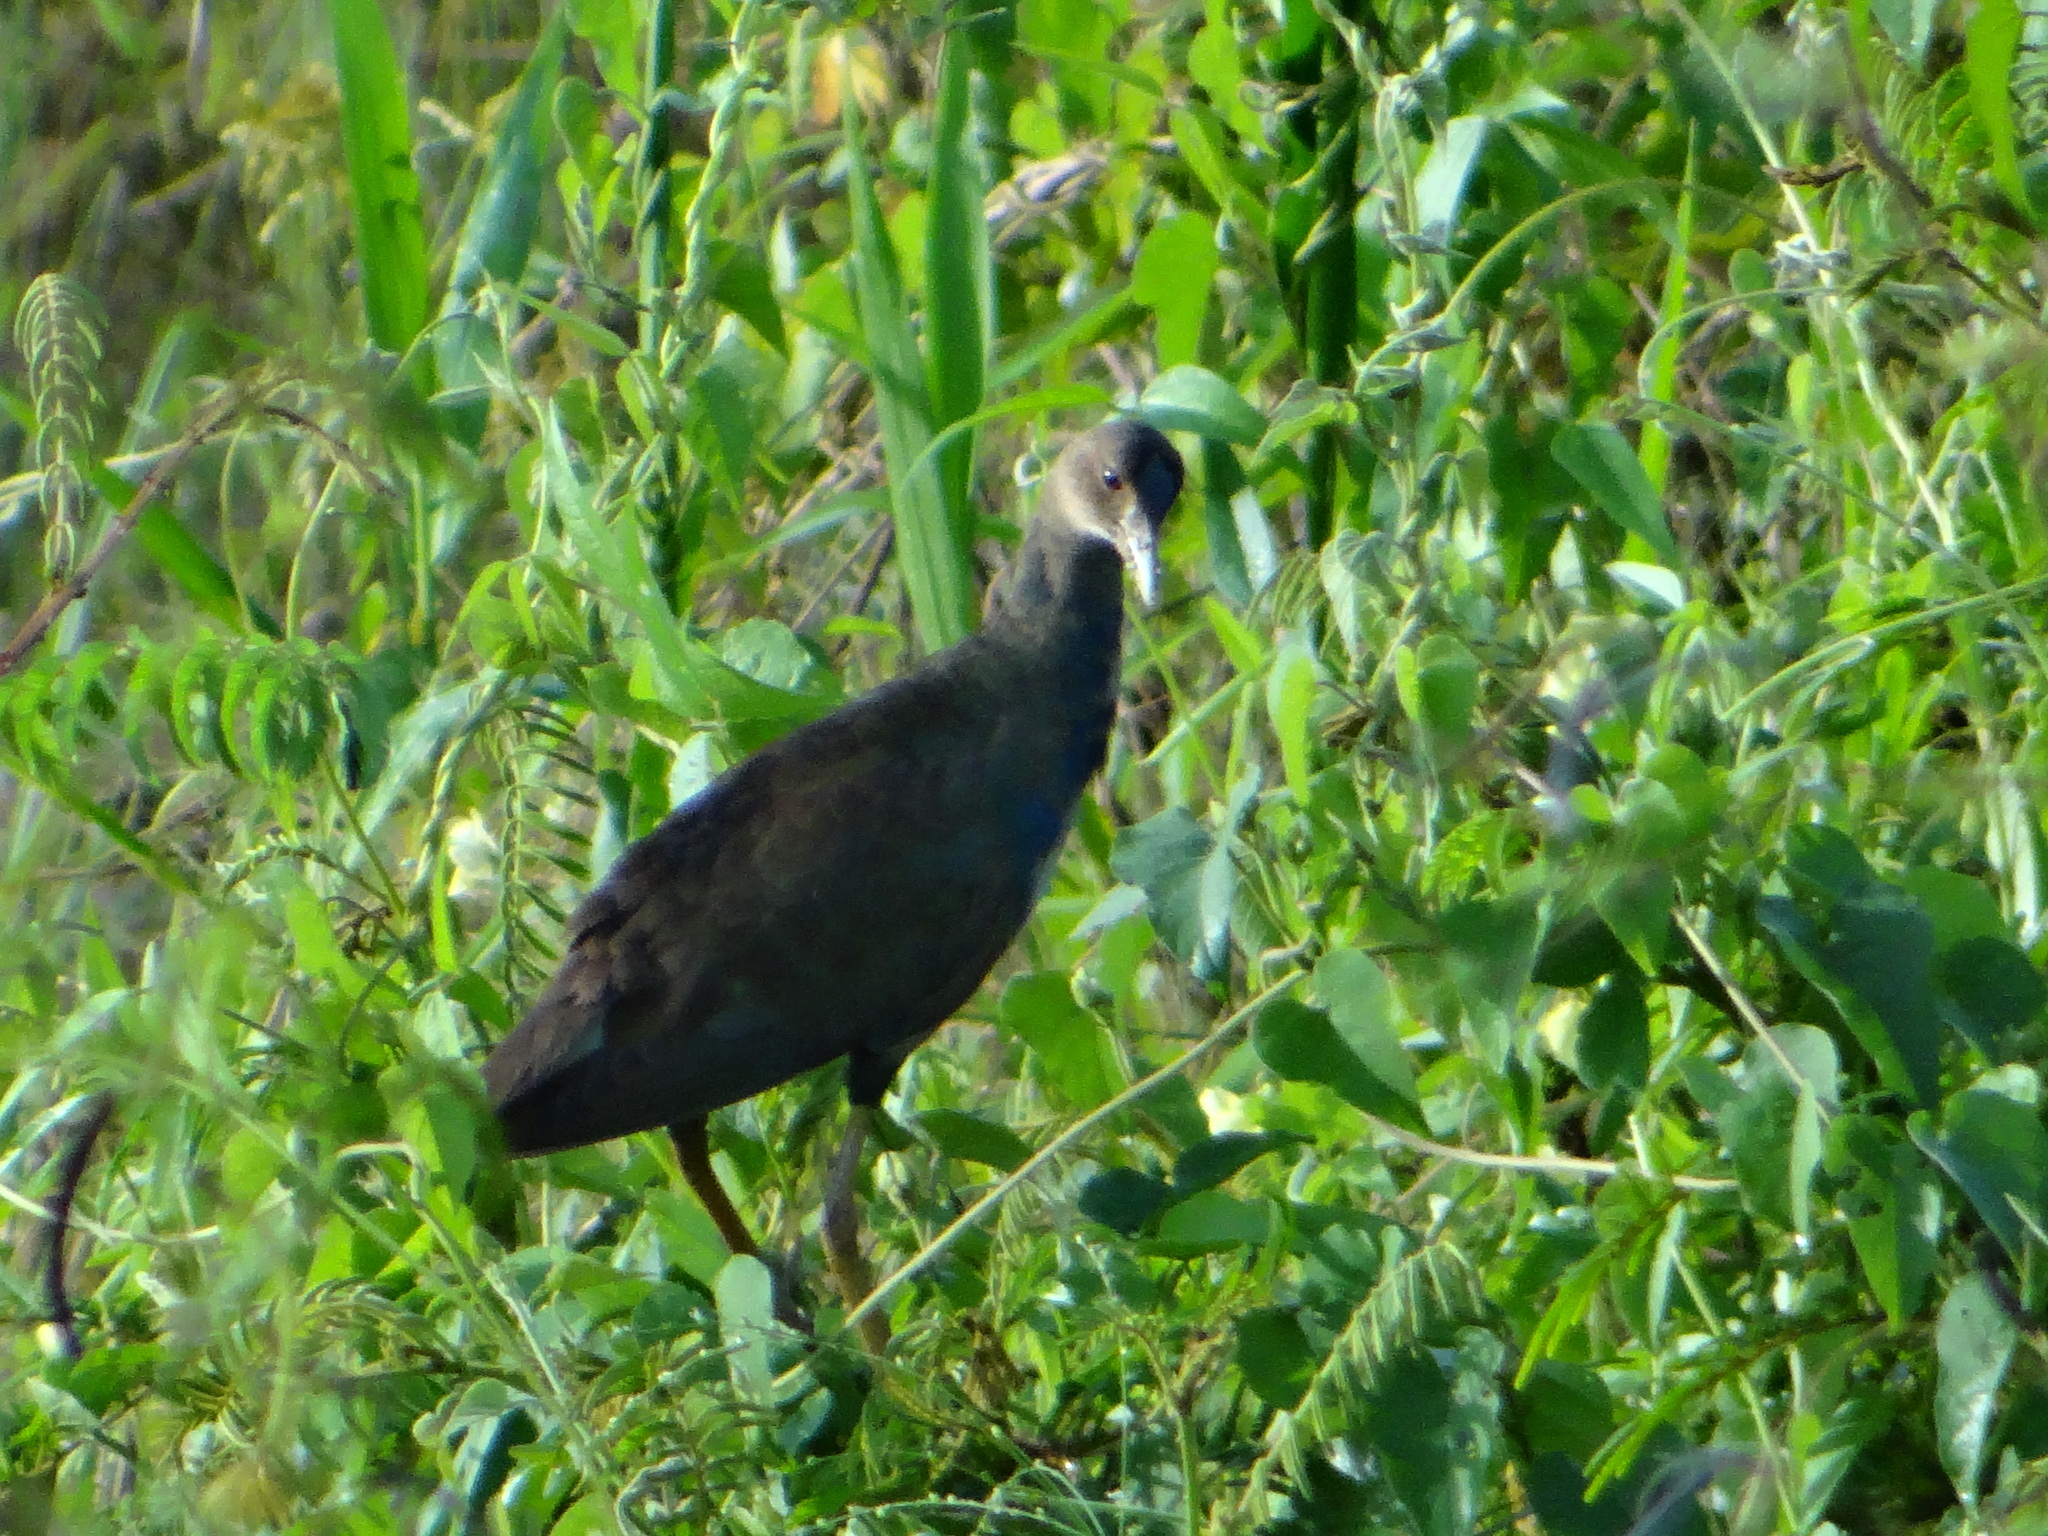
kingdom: Animalia
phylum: Chordata
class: Aves
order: Gruiformes
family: Rallidae
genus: Porphyrio
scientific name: Porphyrio martinica
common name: Purple gallinule
